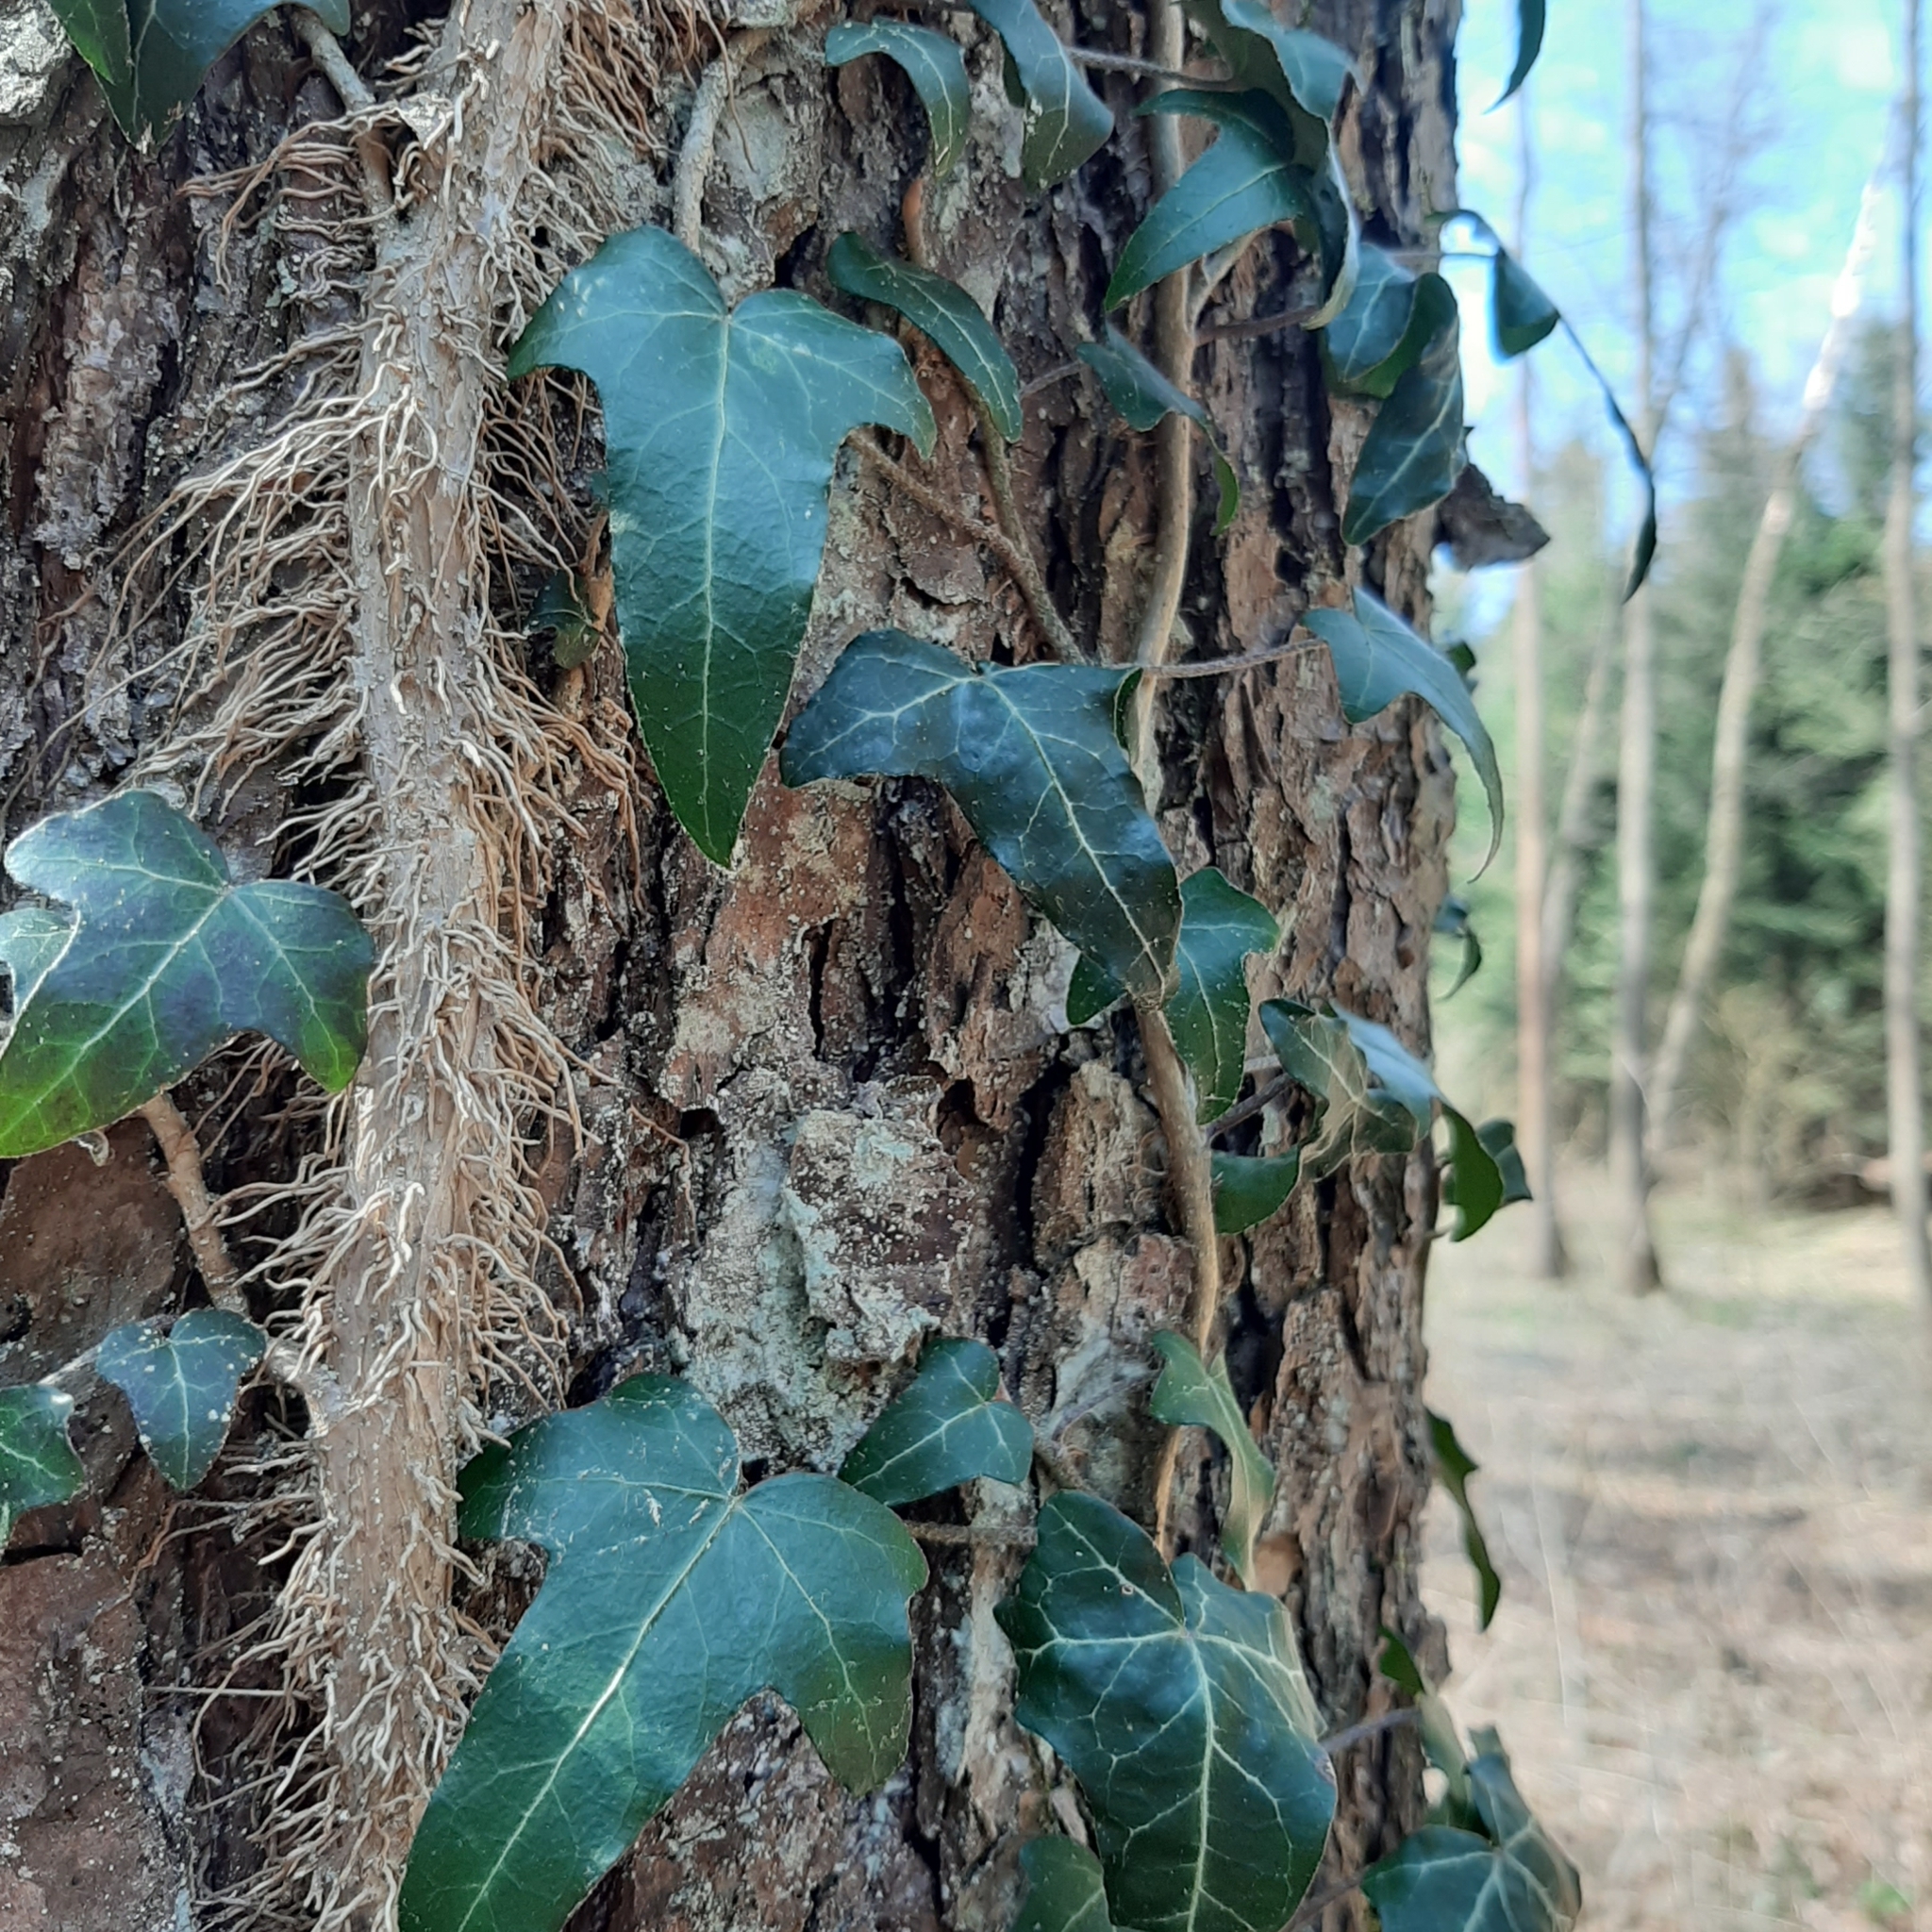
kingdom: Plantae
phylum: Tracheophyta
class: Magnoliopsida
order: Apiales
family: Araliaceae
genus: Hedera
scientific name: Hedera helix
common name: Ivy
